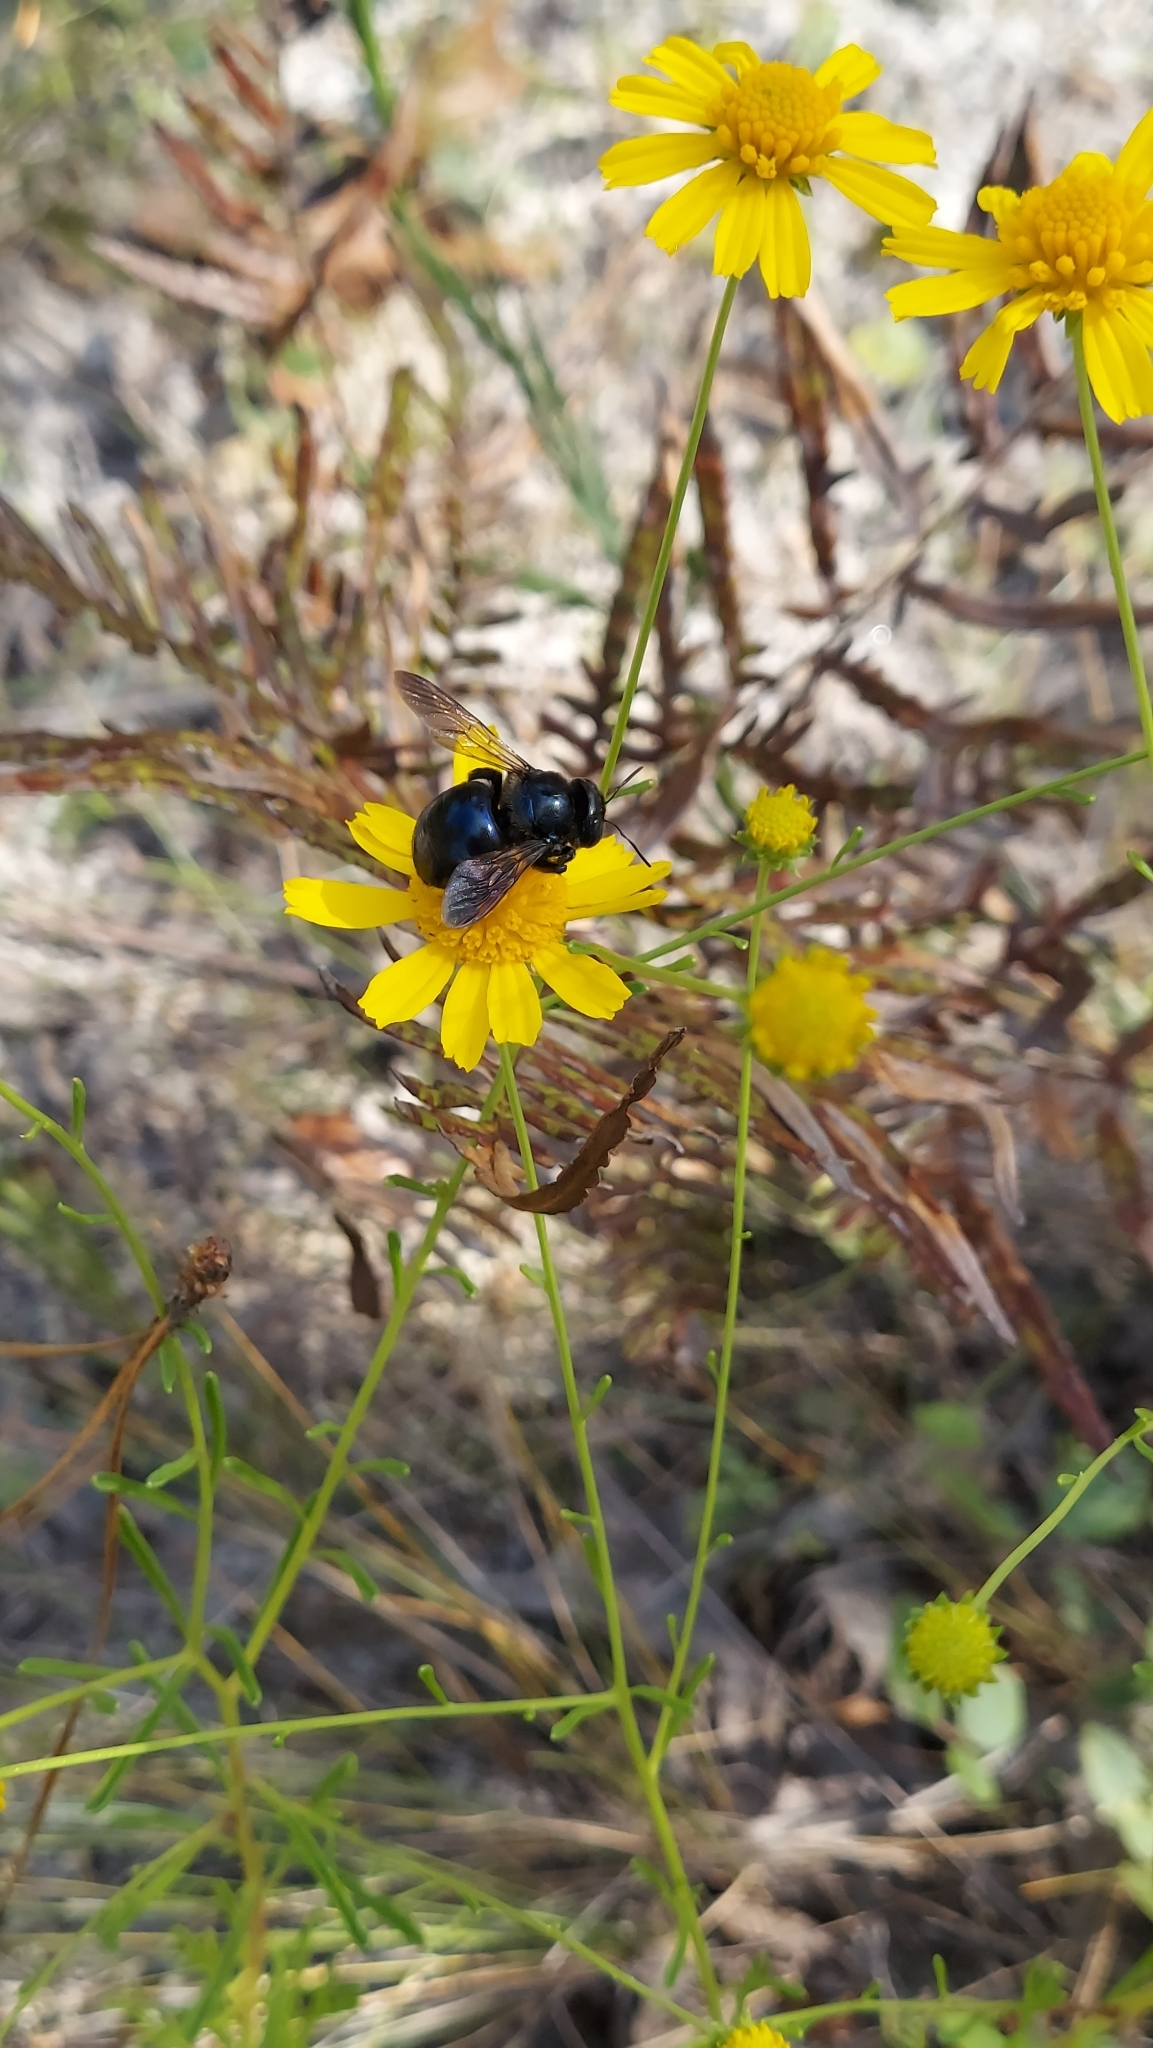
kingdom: Animalia
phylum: Arthropoda
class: Insecta
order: Hymenoptera
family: Apidae
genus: Xylocopa
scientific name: Xylocopa micans
